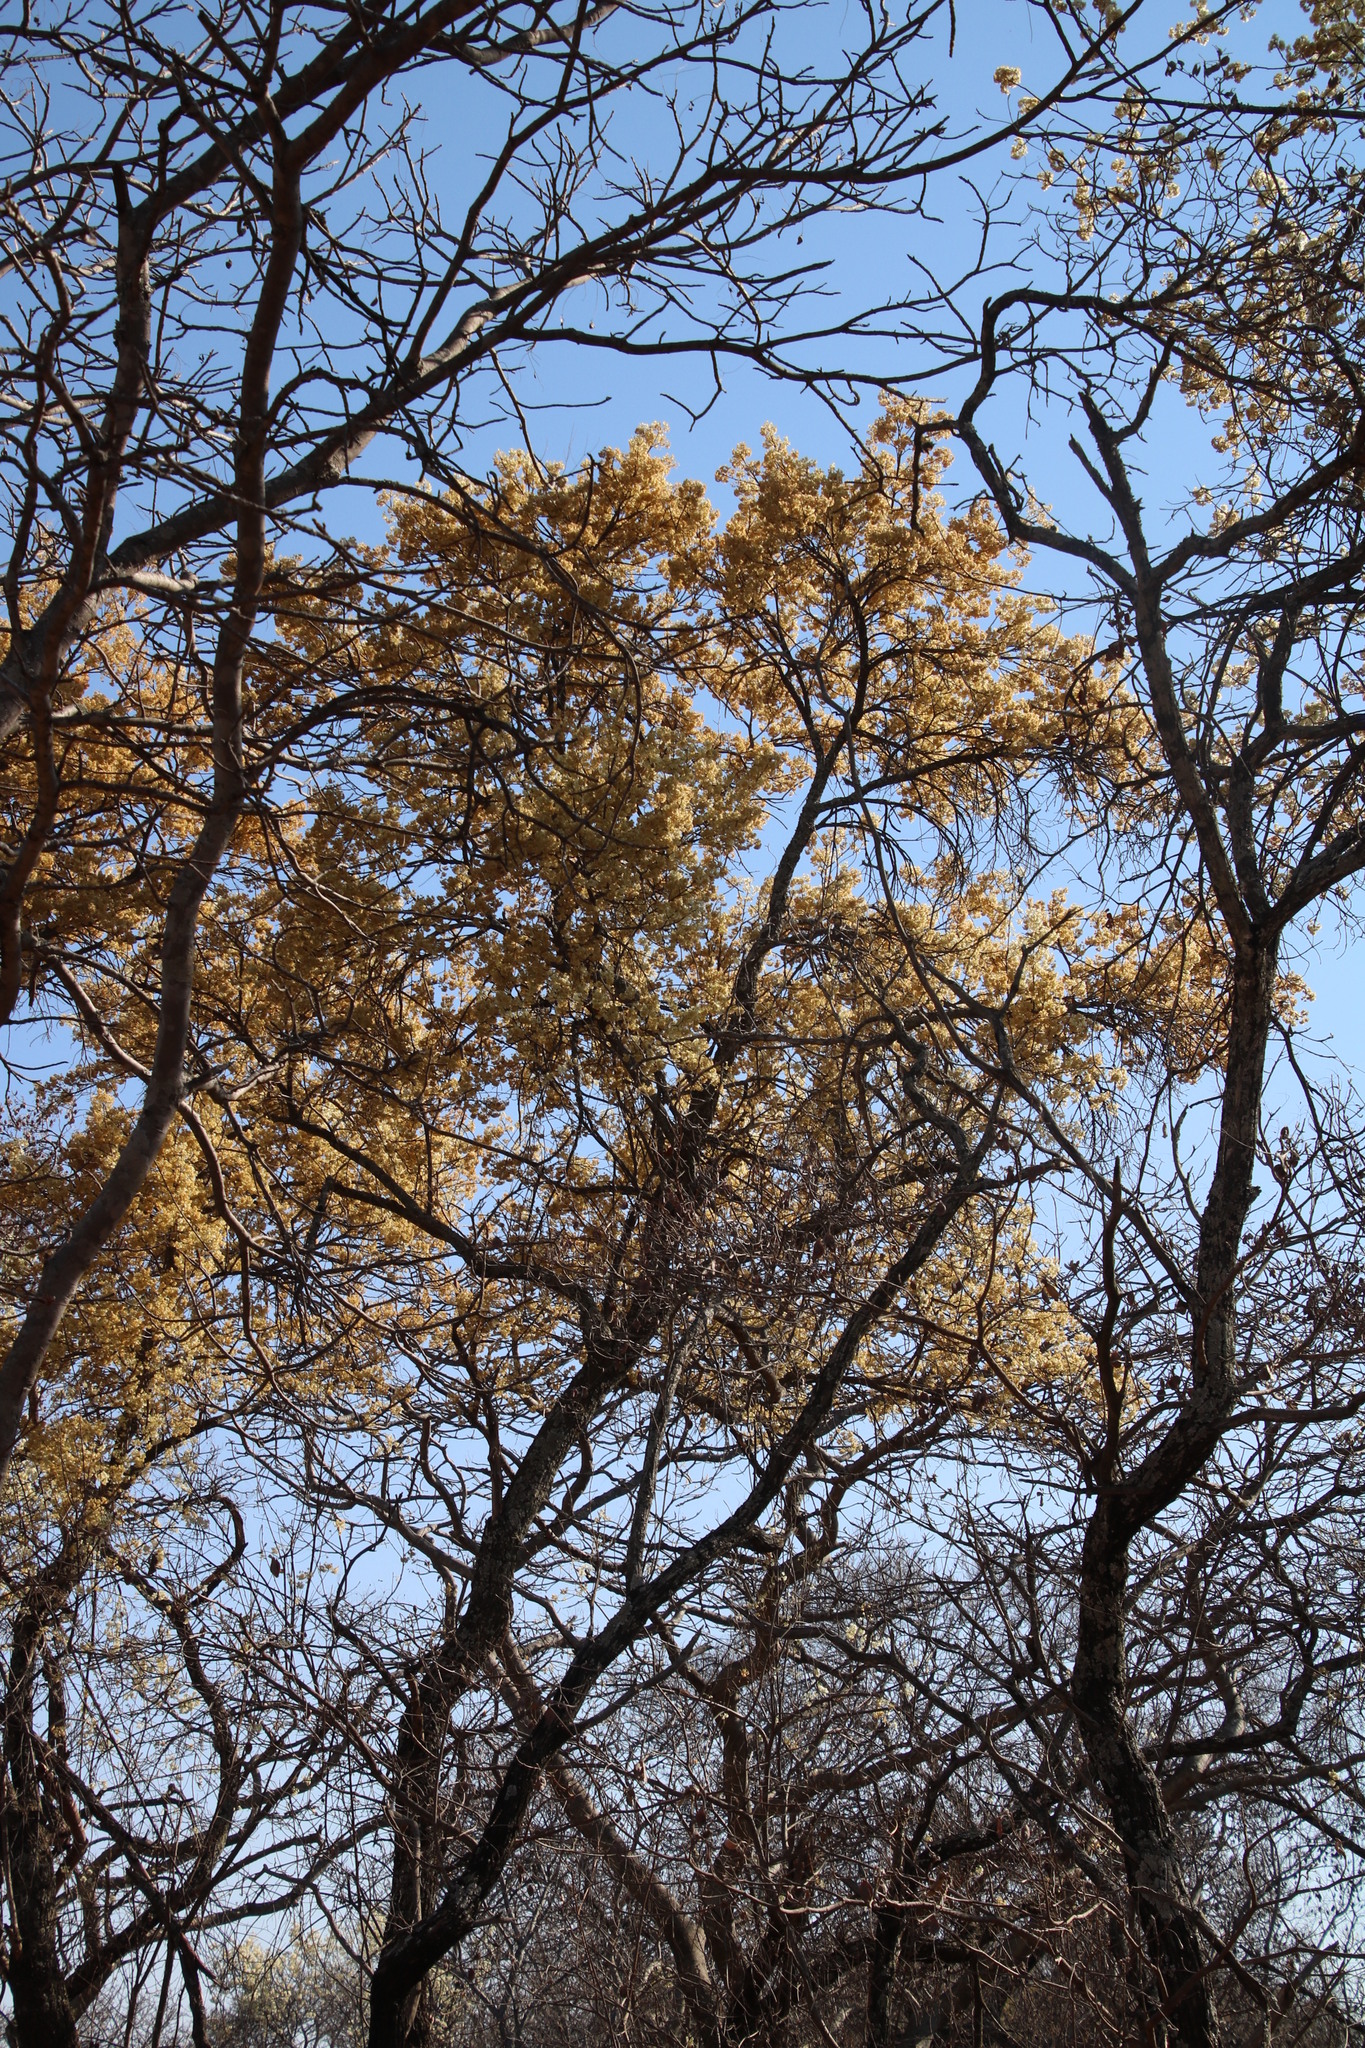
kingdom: Plantae
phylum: Tracheophyta
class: Magnoliopsida
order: Malvales
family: Malvaceae
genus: Dombeya
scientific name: Dombeya rotundifolia
